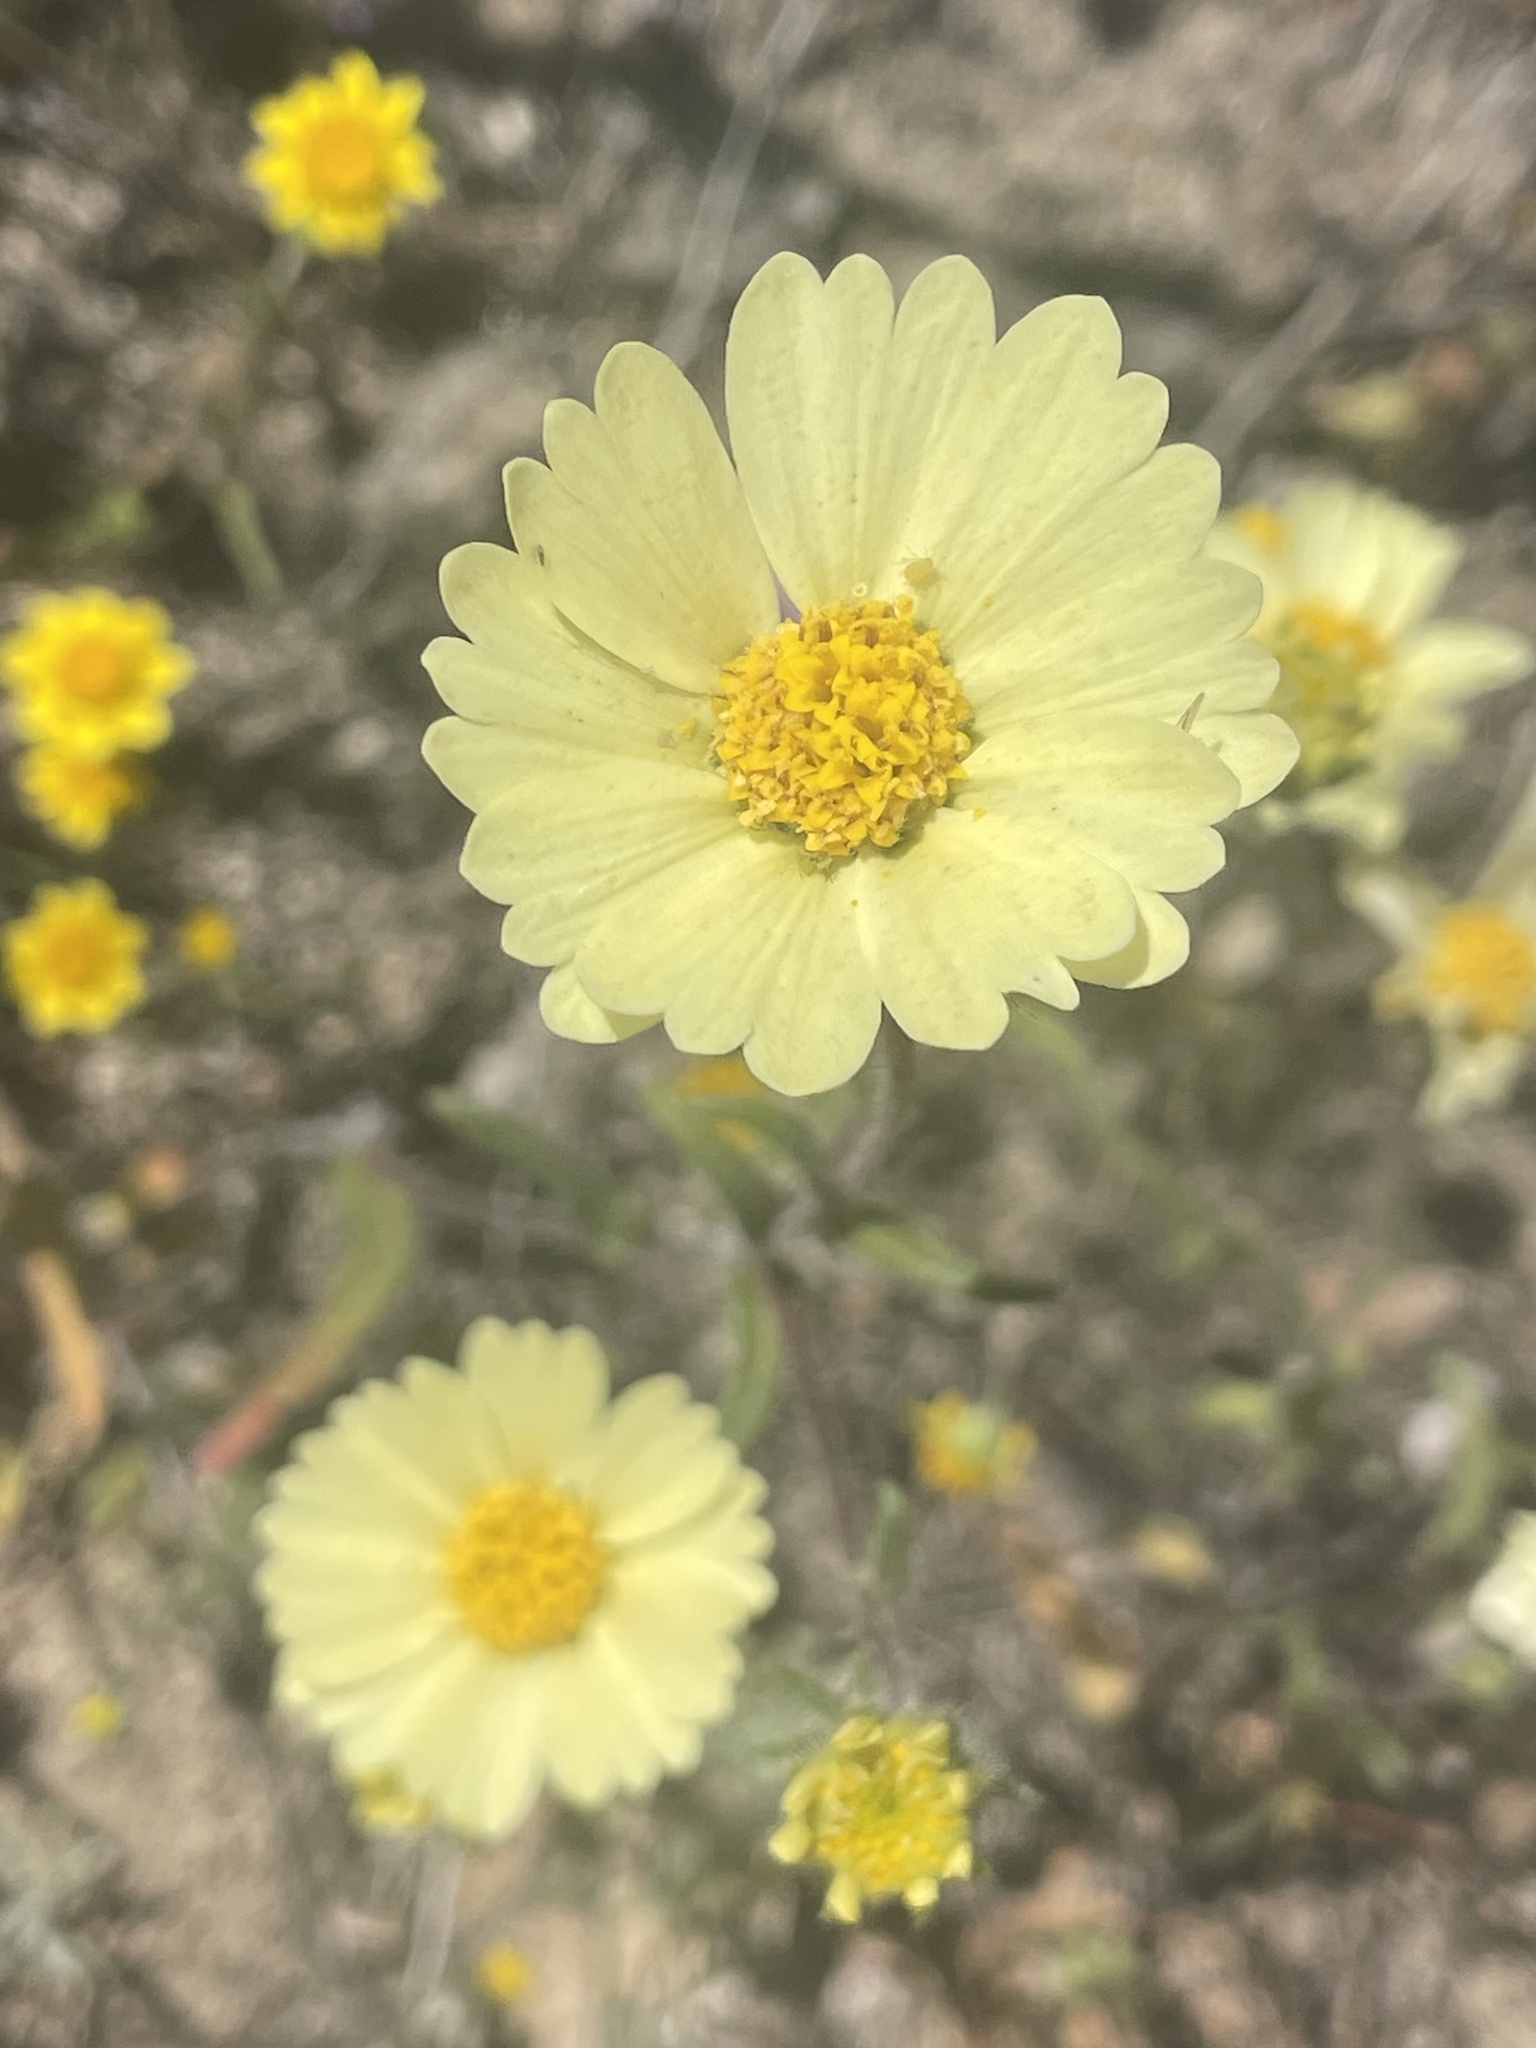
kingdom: Plantae
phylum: Tracheophyta
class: Magnoliopsida
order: Asterales
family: Asteraceae
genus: Layia
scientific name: Layia glandulosa
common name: White layia
